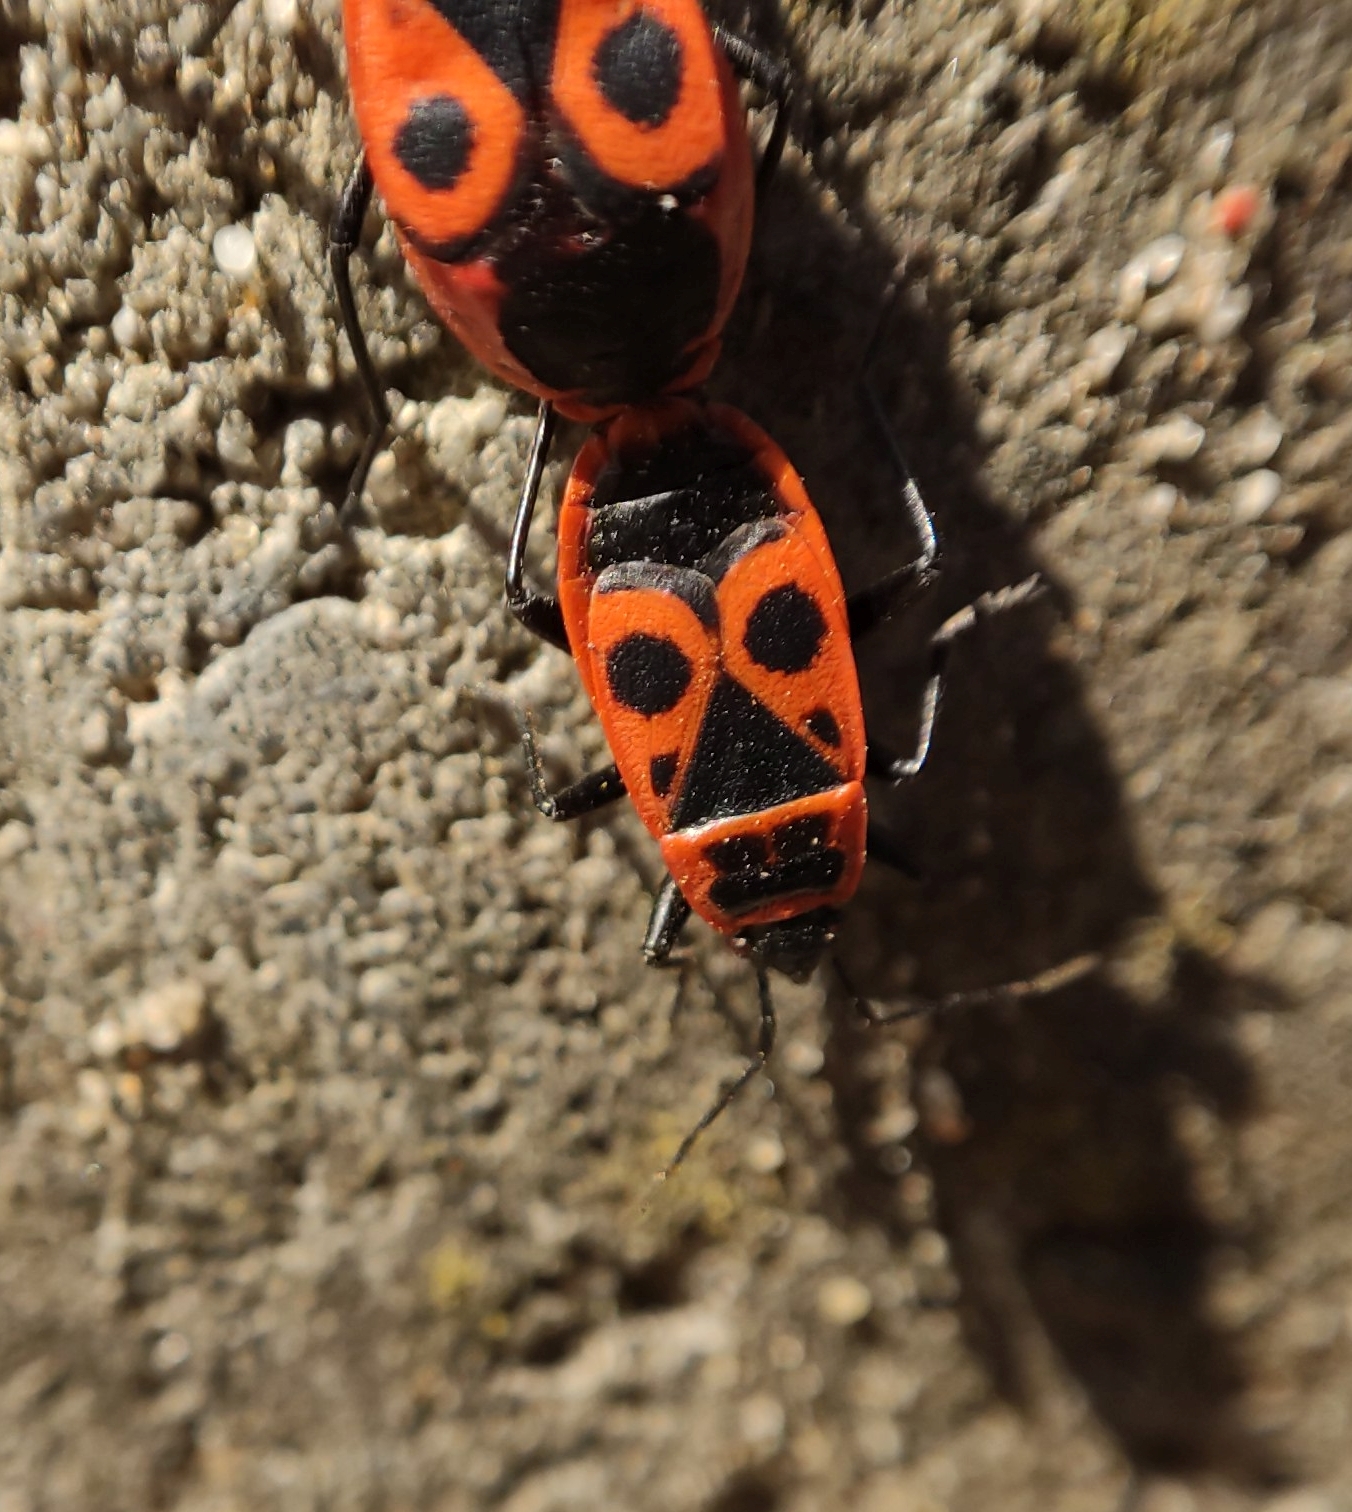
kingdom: Animalia
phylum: Arthropoda
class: Insecta
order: Hemiptera
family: Pyrrhocoridae
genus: Pyrrhocoris
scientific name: Pyrrhocoris apterus
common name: Firebug
